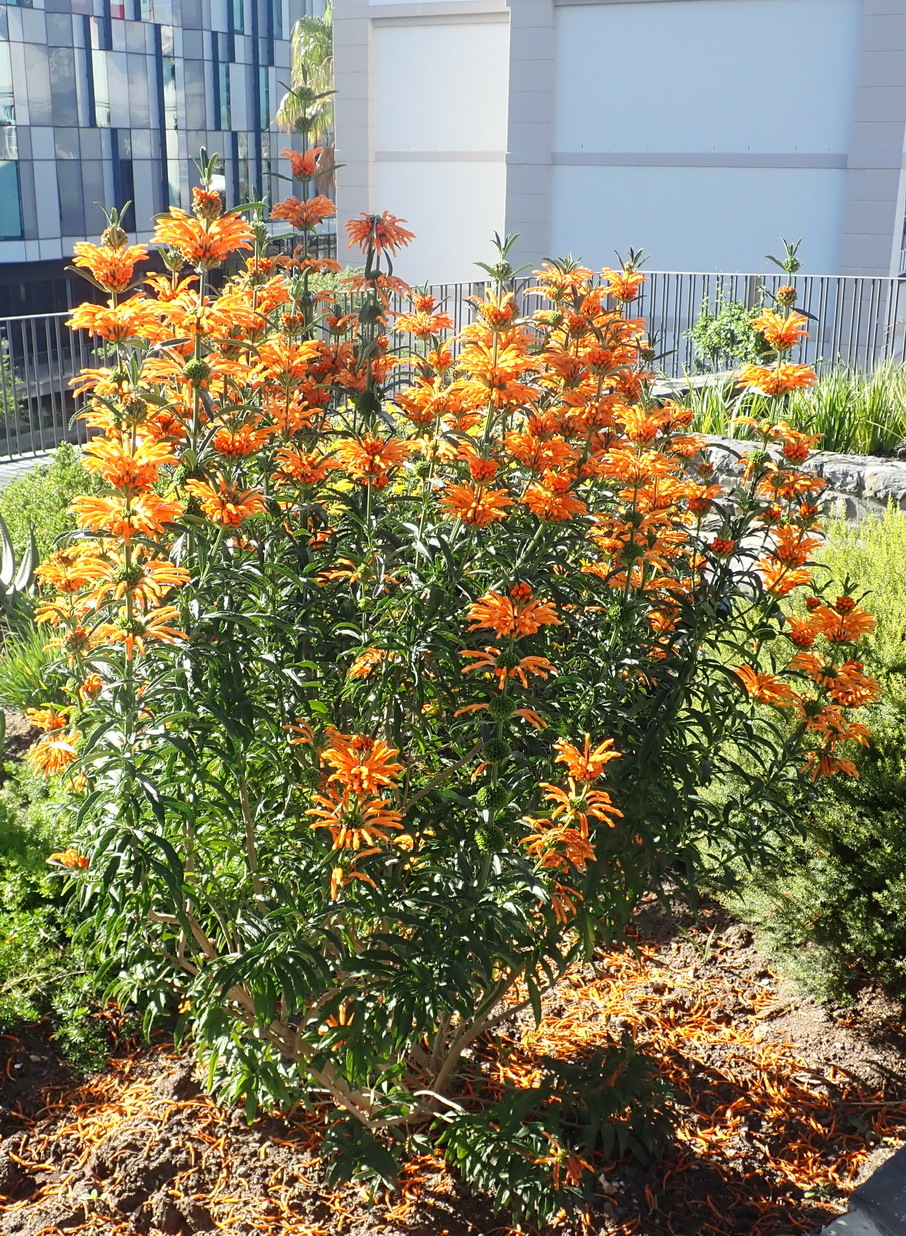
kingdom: Plantae
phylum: Tracheophyta
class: Magnoliopsida
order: Lamiales
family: Lamiaceae
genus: Leonotis
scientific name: Leonotis leonurus
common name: Lion's ear
